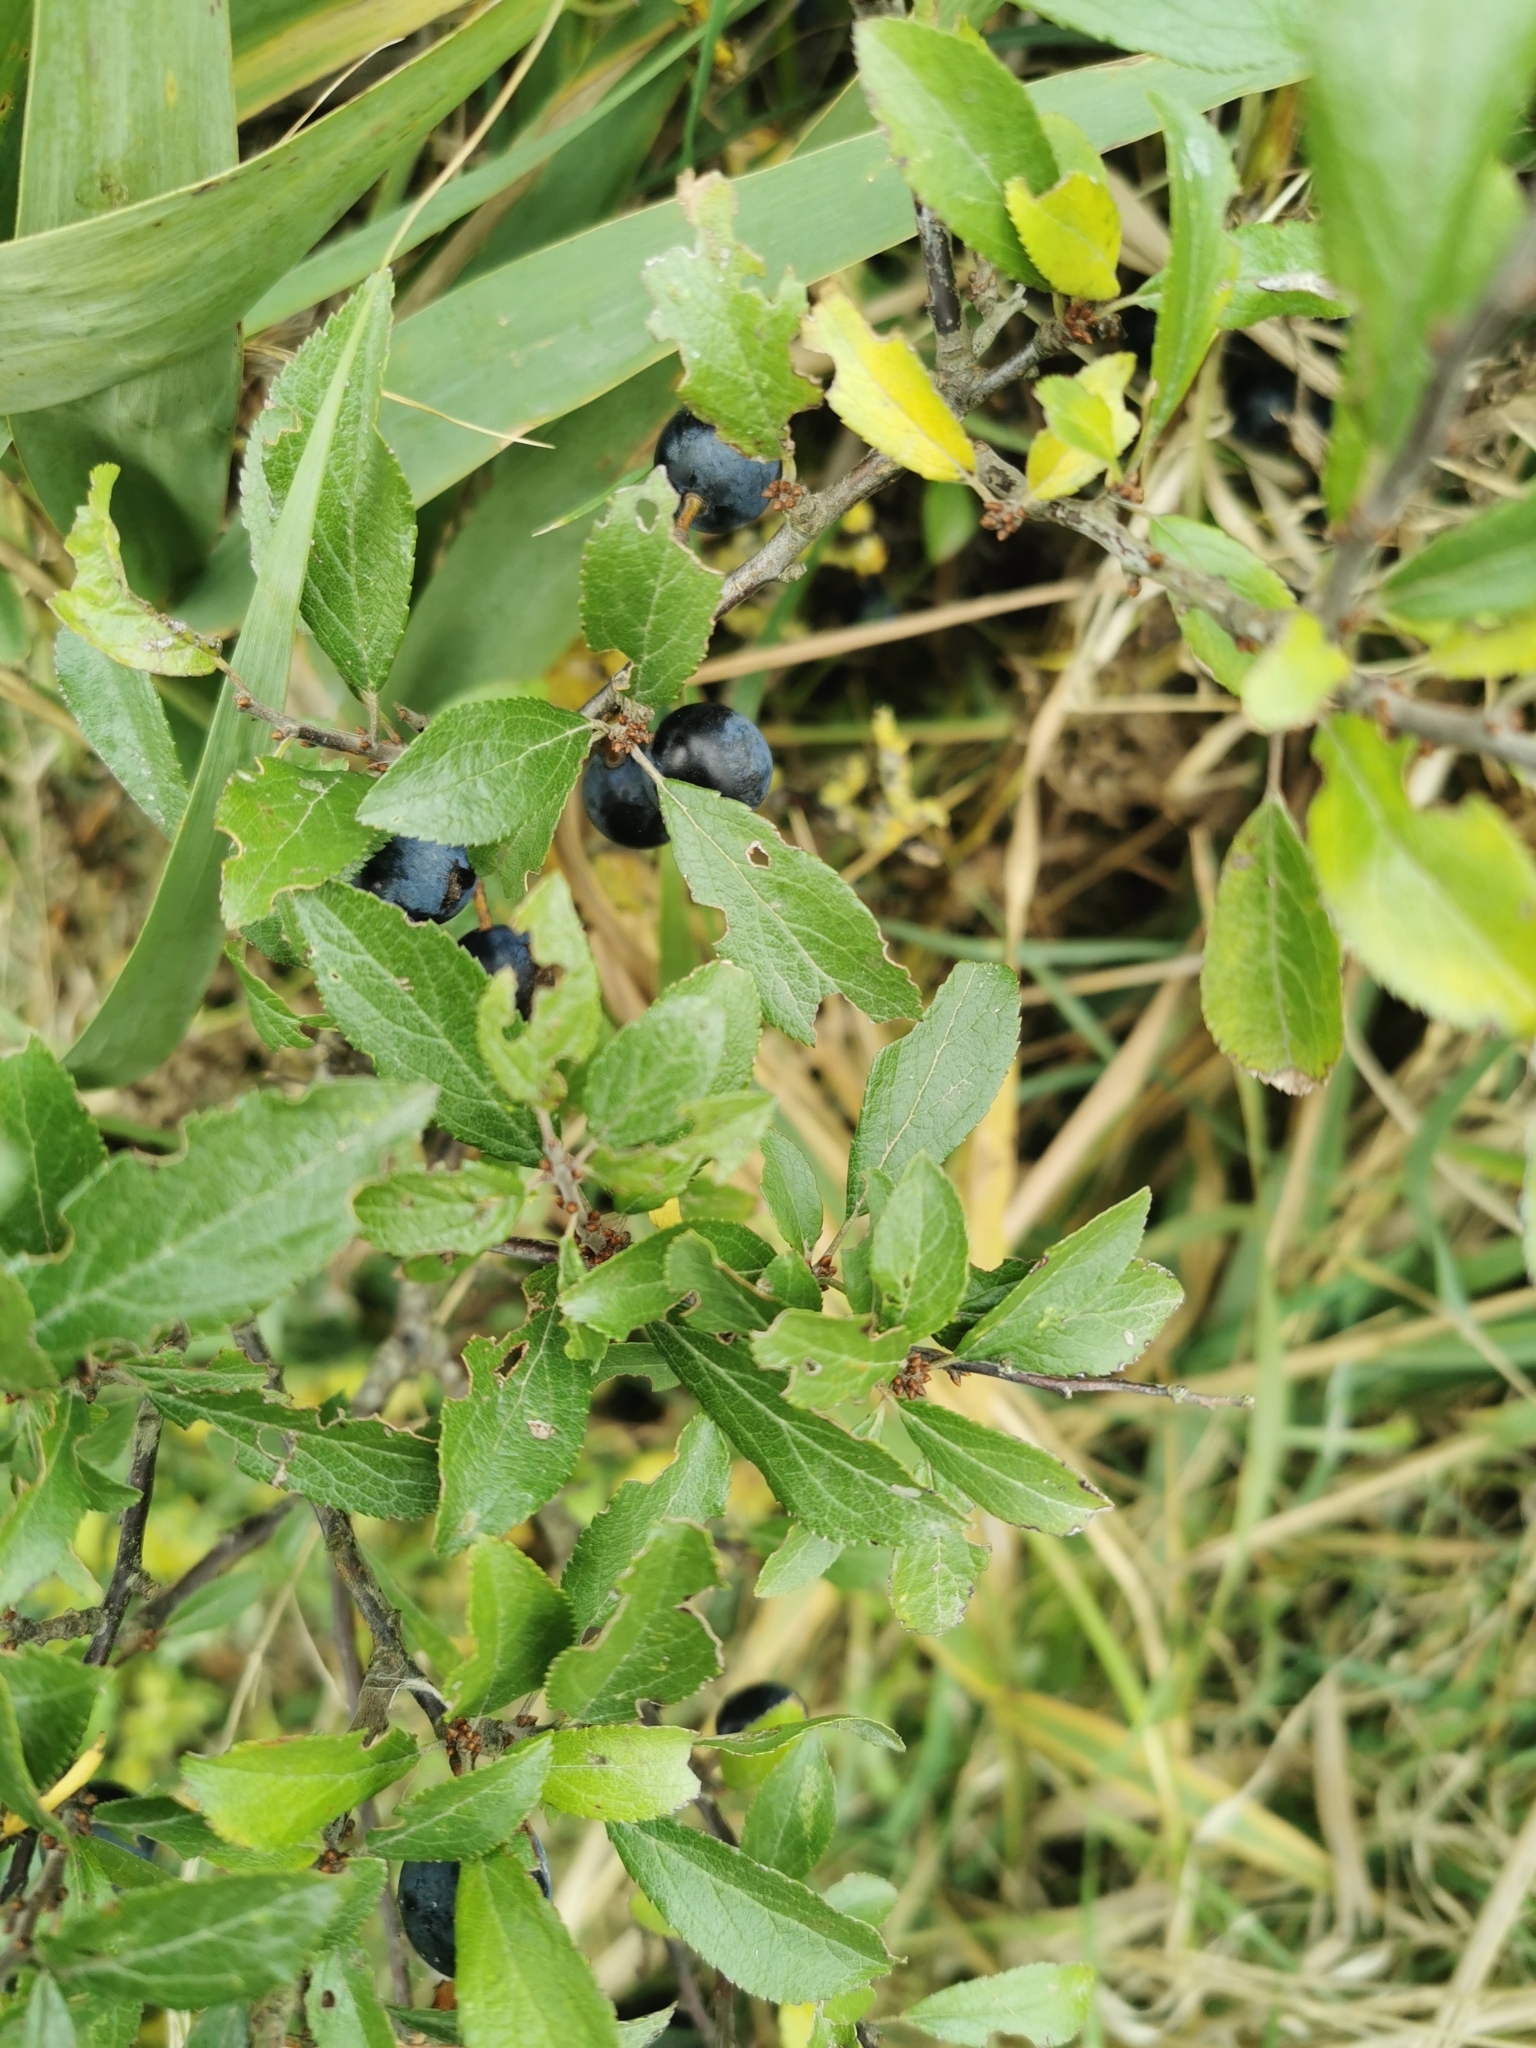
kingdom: Plantae
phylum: Tracheophyta
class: Magnoliopsida
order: Rosales
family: Rosaceae
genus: Prunus
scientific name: Prunus spinosa
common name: Blackthorn
